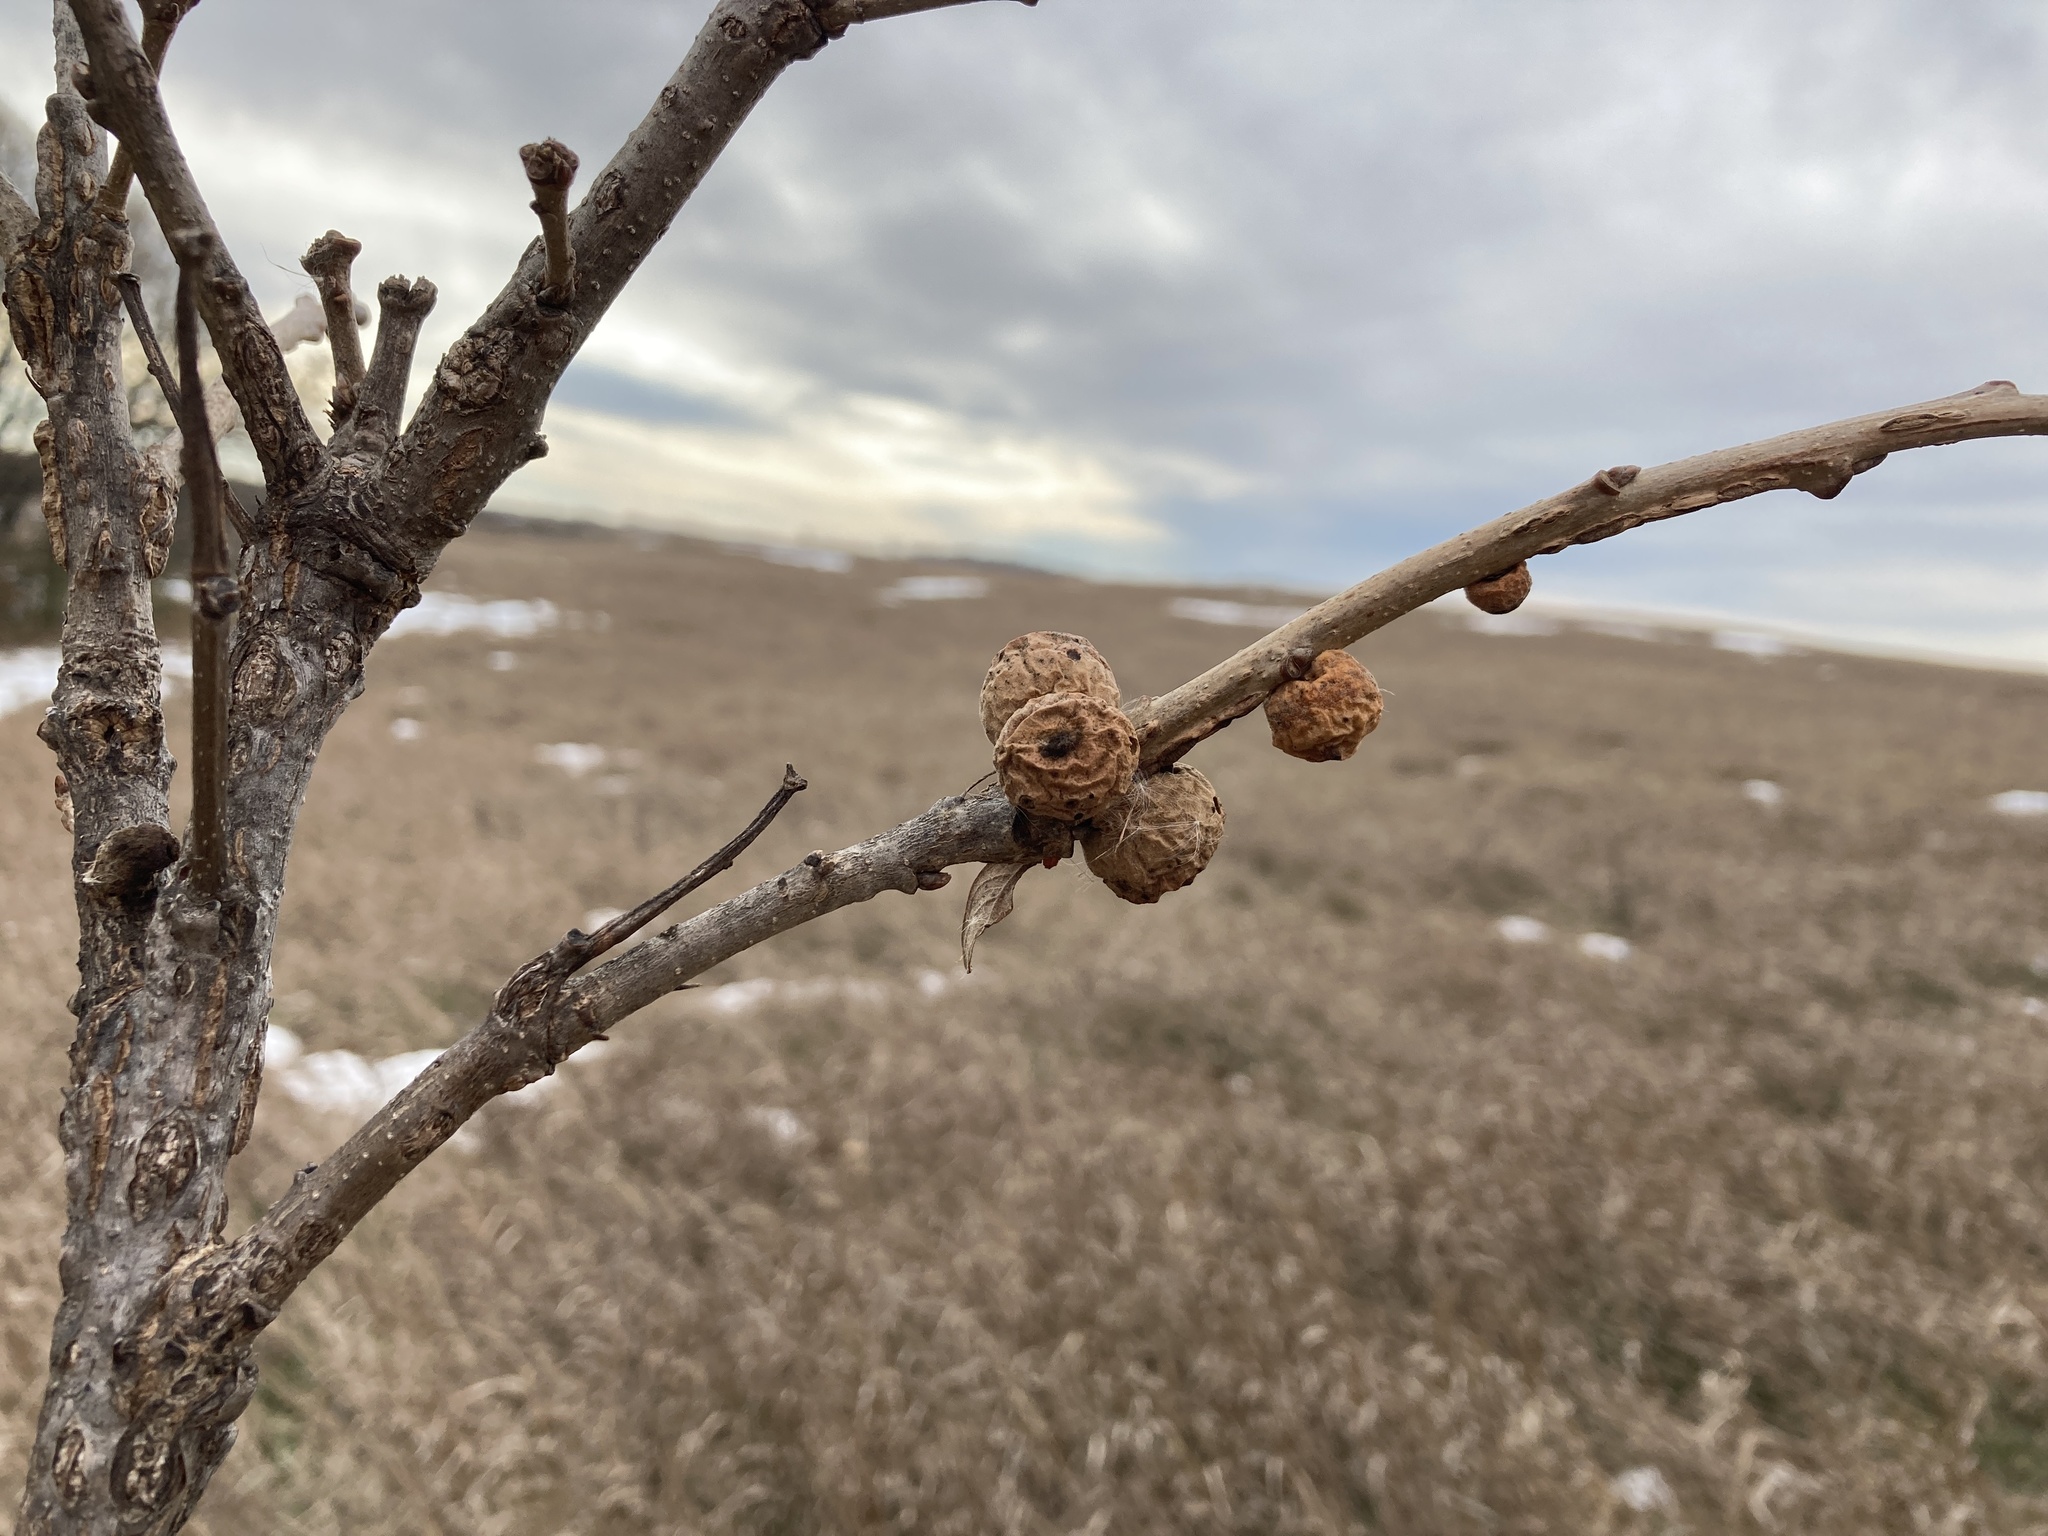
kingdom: Animalia
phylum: Arthropoda
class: Insecta
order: Hymenoptera
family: Cynipidae
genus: Disholcaspis
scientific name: Disholcaspis
